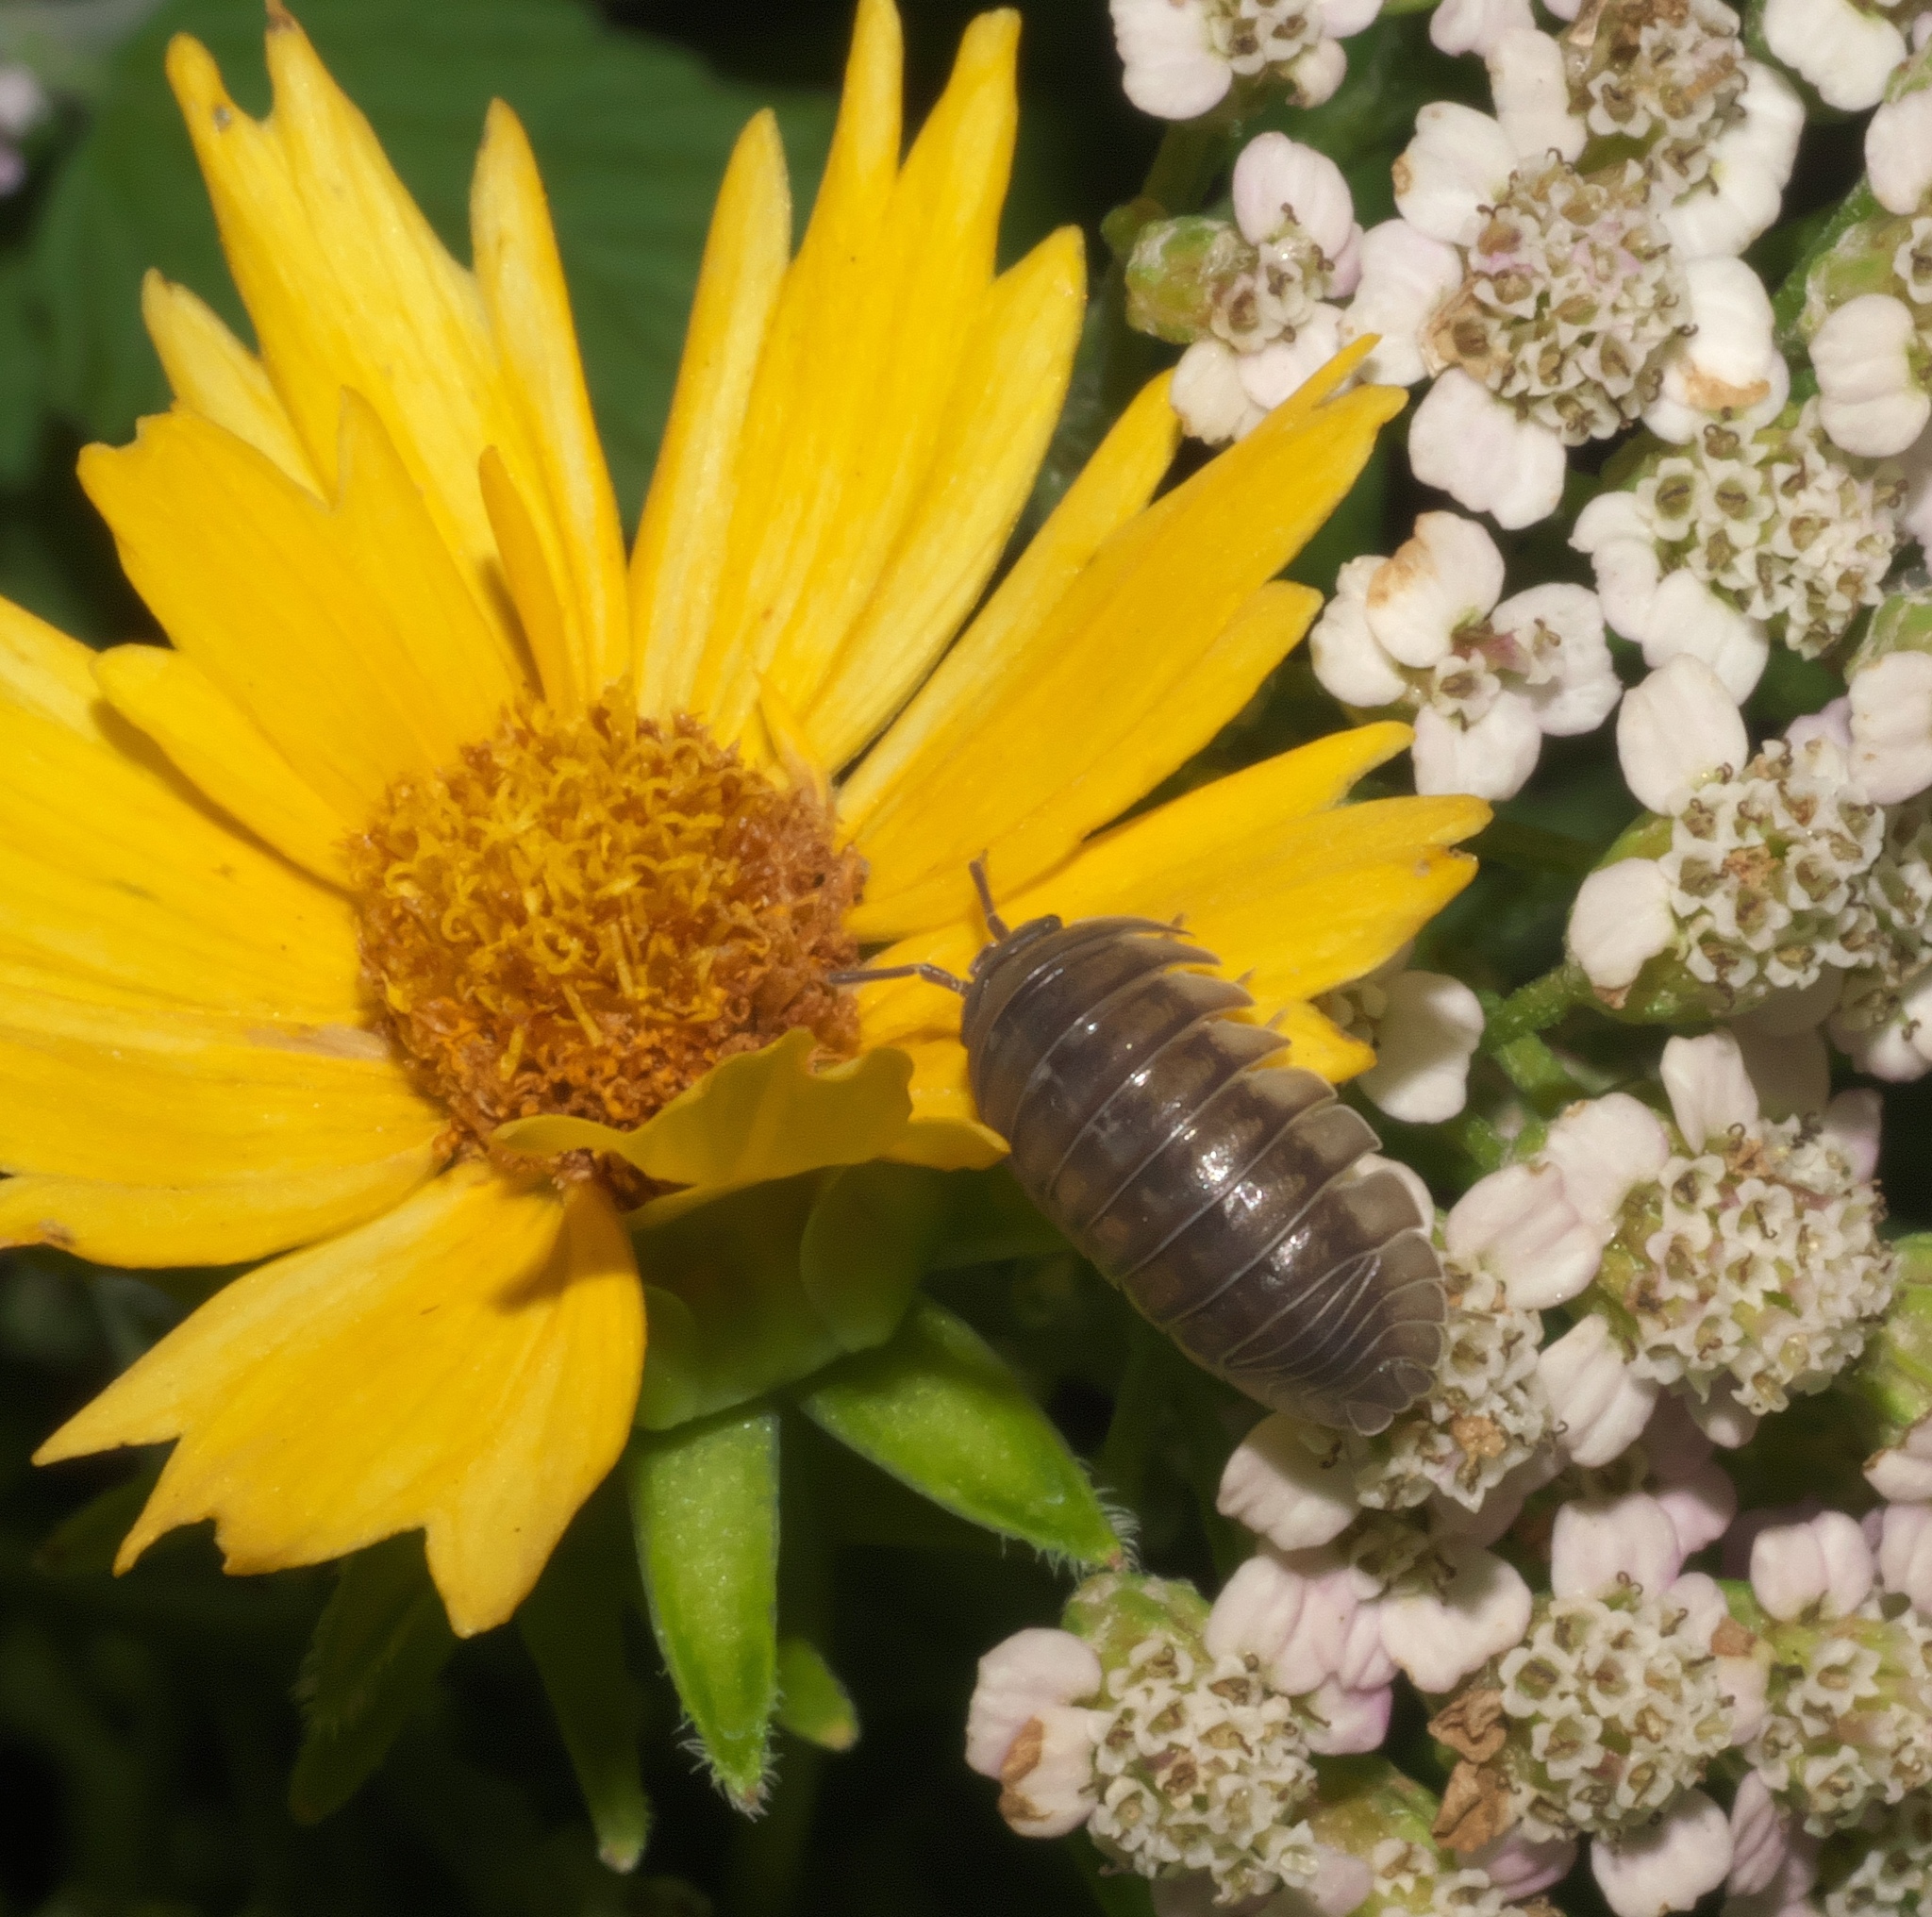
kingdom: Animalia
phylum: Arthropoda
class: Malacostraca
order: Isopoda
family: Armadillidiidae
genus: Armadillidium
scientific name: Armadillidium nasatum
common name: Isopod
